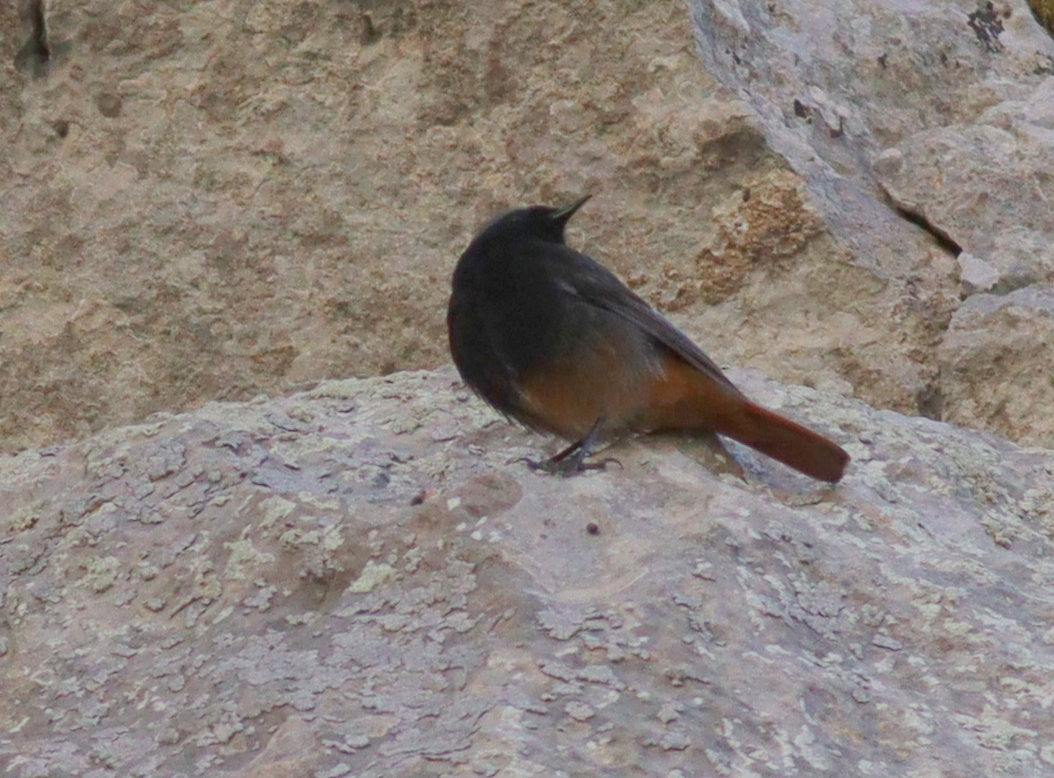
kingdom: Animalia
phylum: Chordata
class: Aves
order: Passeriformes
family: Muscicapidae
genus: Phoenicurus
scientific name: Phoenicurus ochruros
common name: Black redstart
